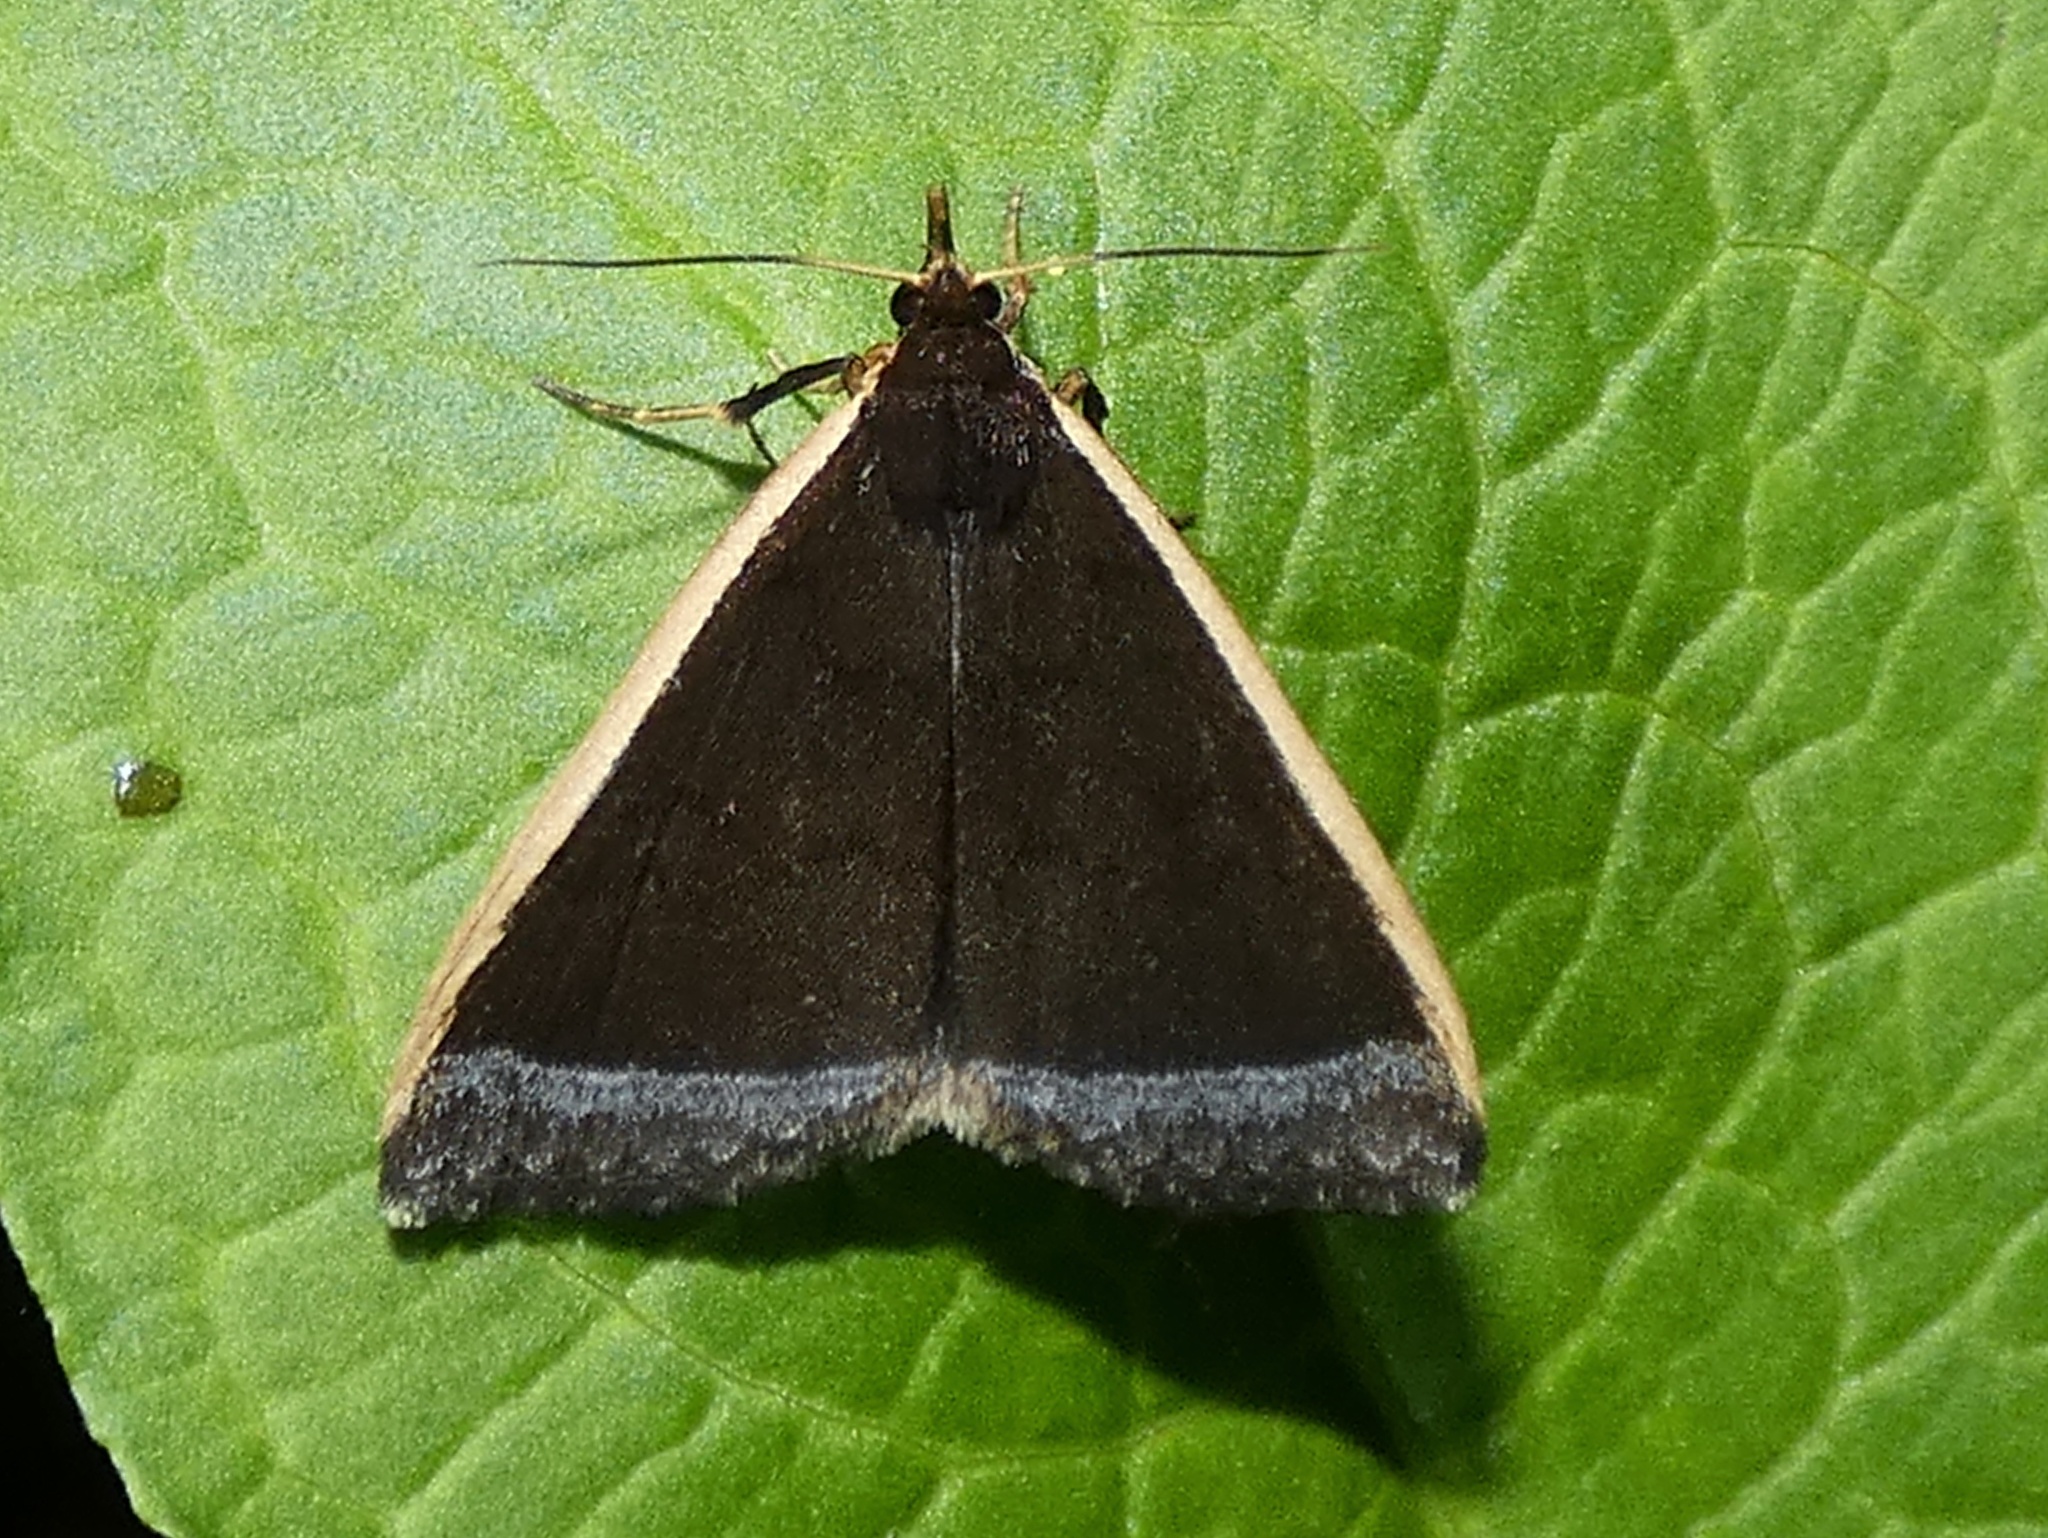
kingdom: Animalia
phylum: Arthropoda
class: Insecta
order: Lepidoptera
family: Erebidae
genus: Mastixis
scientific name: Mastixis albilimbata
